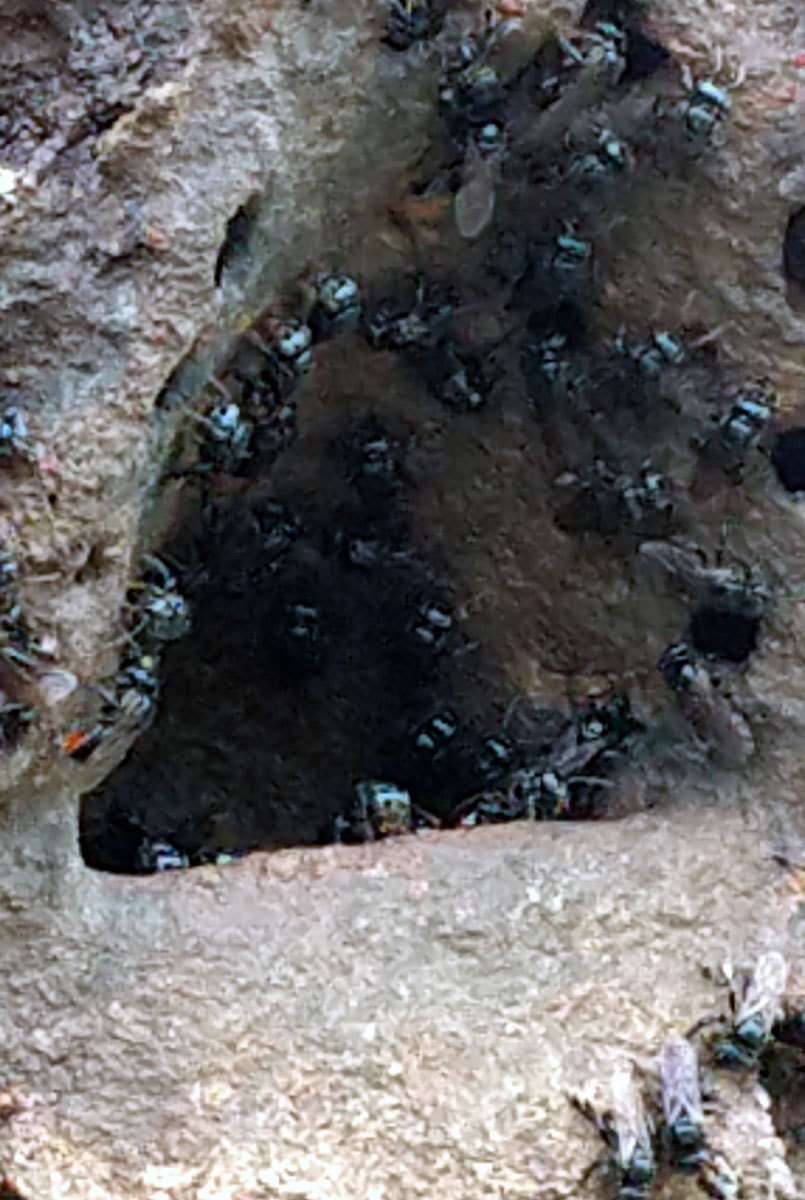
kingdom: Animalia
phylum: Arthropoda
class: Insecta
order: Hymenoptera
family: Apidae
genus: Partamona
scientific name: Partamona helleri
